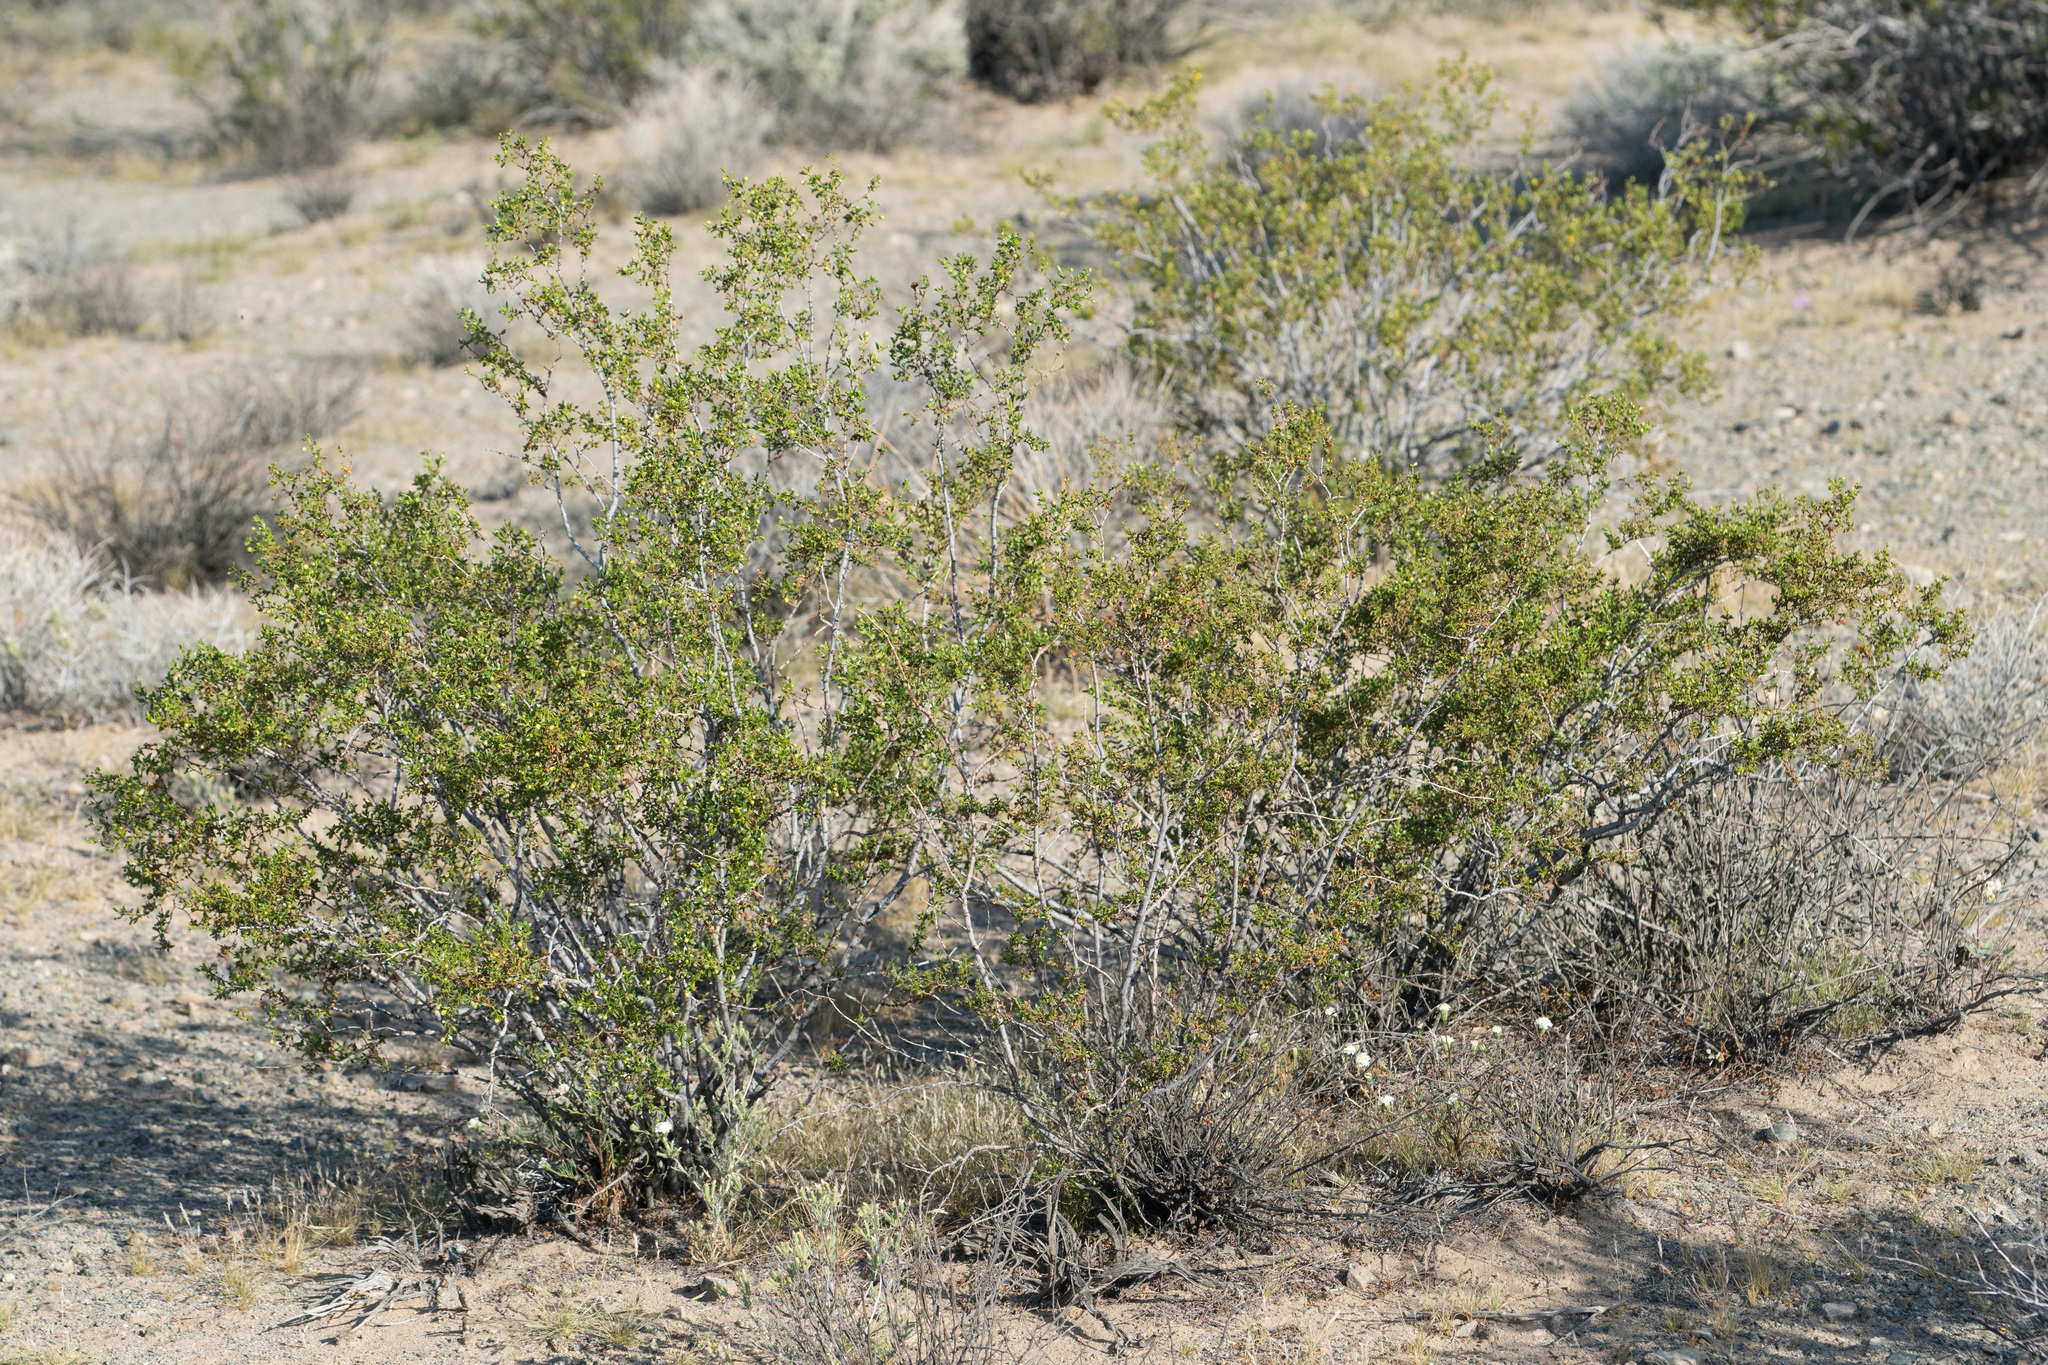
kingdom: Plantae
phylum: Tracheophyta
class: Magnoliopsida
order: Zygophyllales
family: Zygophyllaceae
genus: Larrea
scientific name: Larrea tridentata
